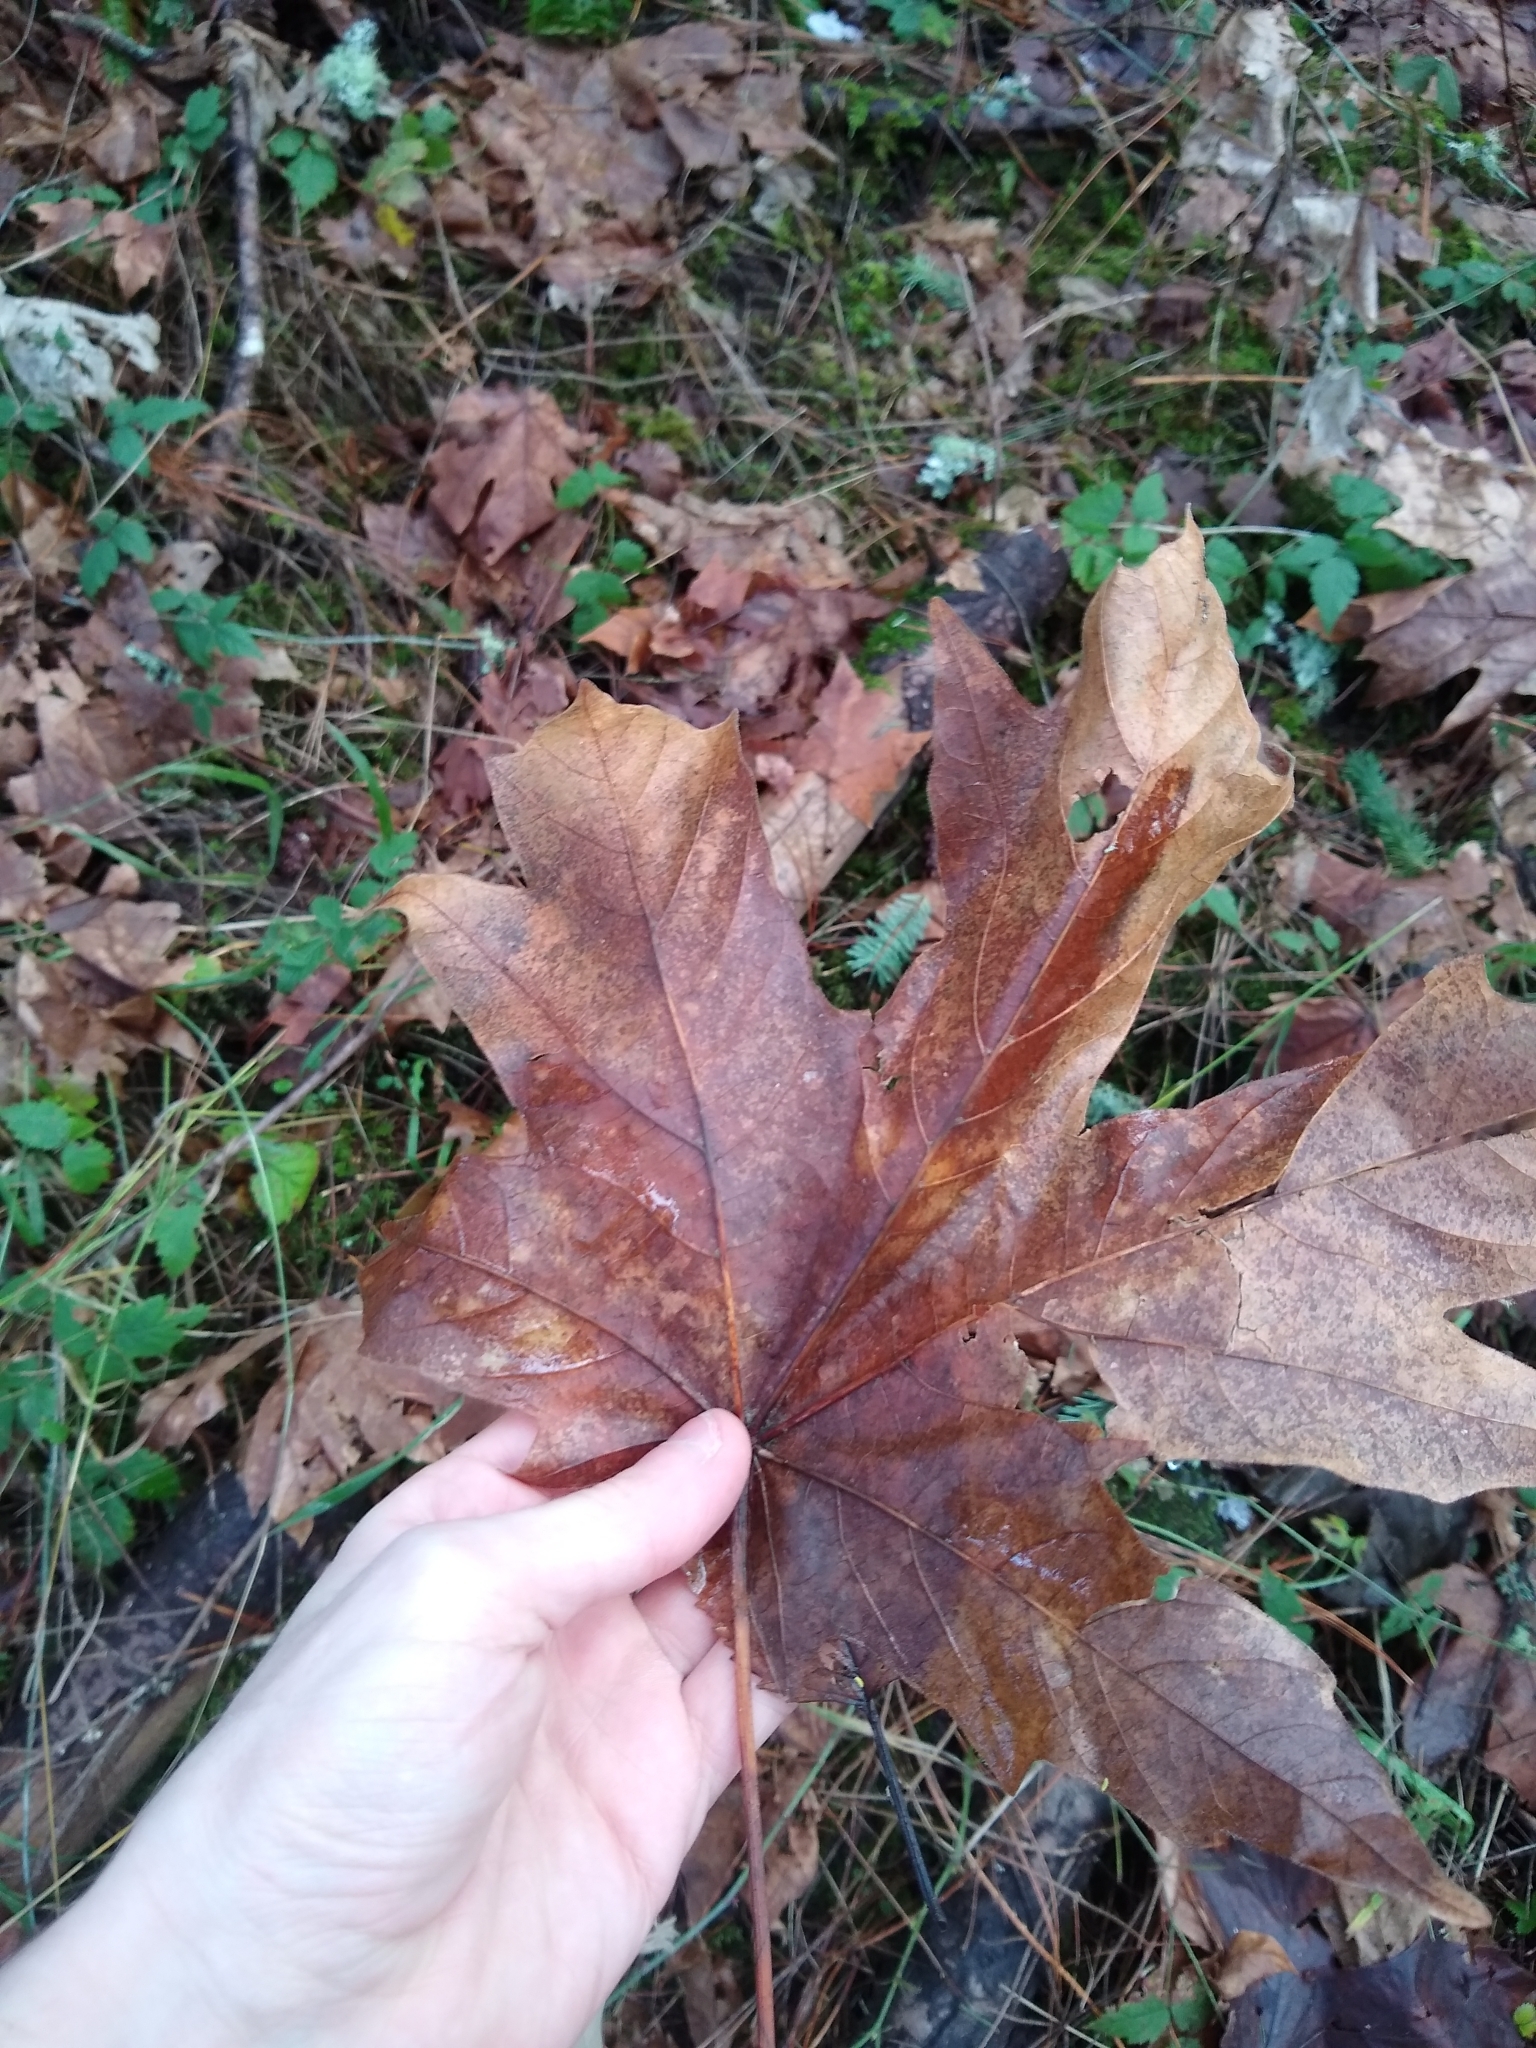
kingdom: Plantae
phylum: Tracheophyta
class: Magnoliopsida
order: Sapindales
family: Sapindaceae
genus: Acer
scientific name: Acer macrophyllum
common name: Oregon maple
